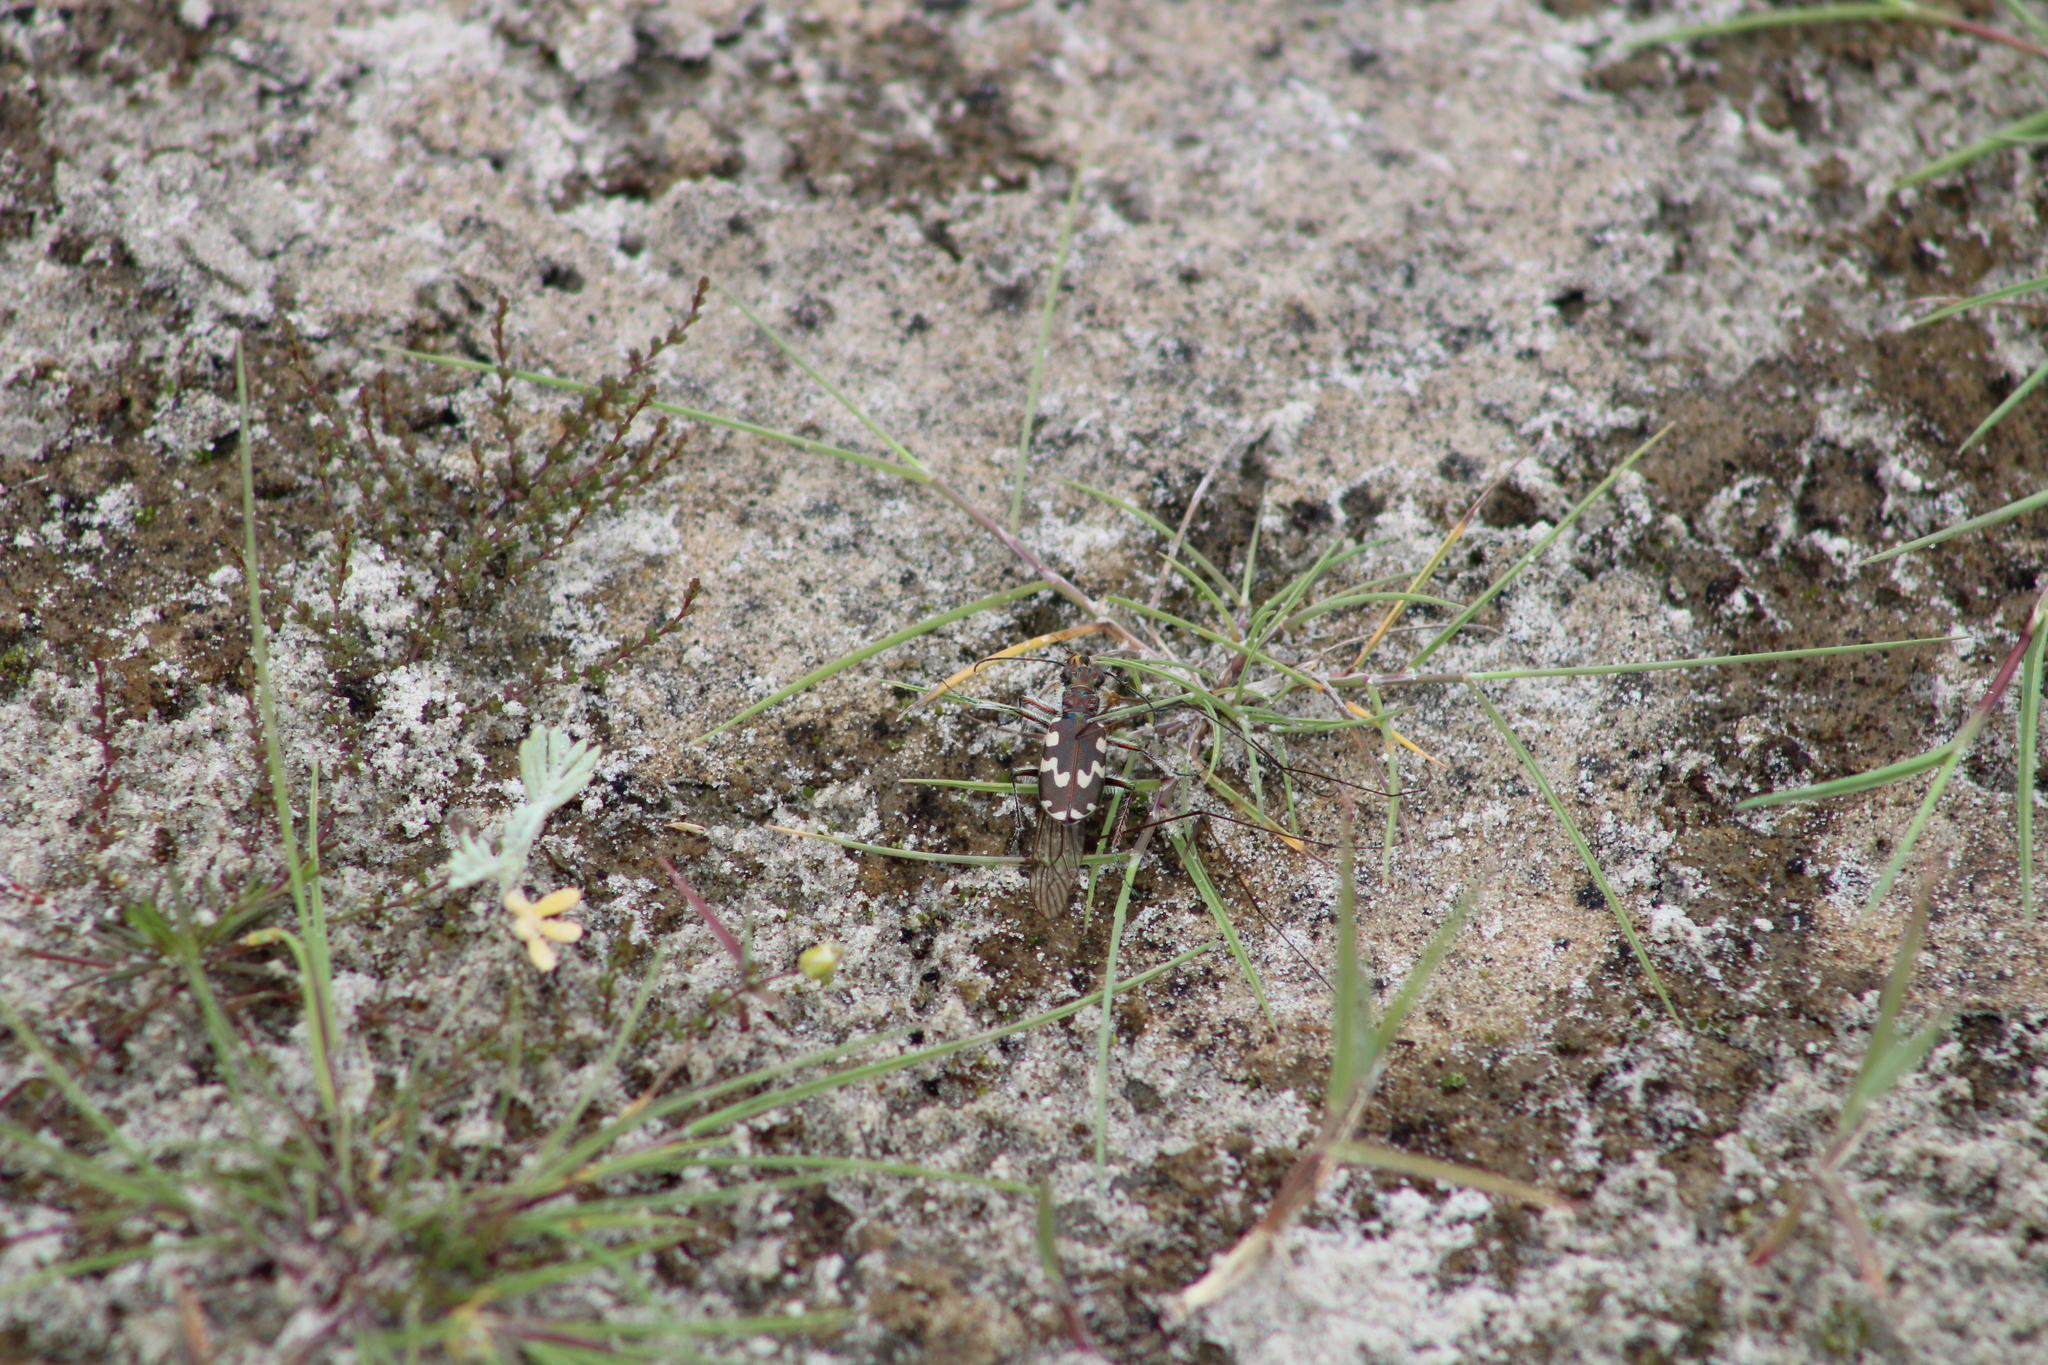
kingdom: Animalia
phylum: Arthropoda
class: Insecta
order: Coleoptera
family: Carabidae
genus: Cicindela
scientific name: Cicindela maritima
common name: Dune tiger beetle
